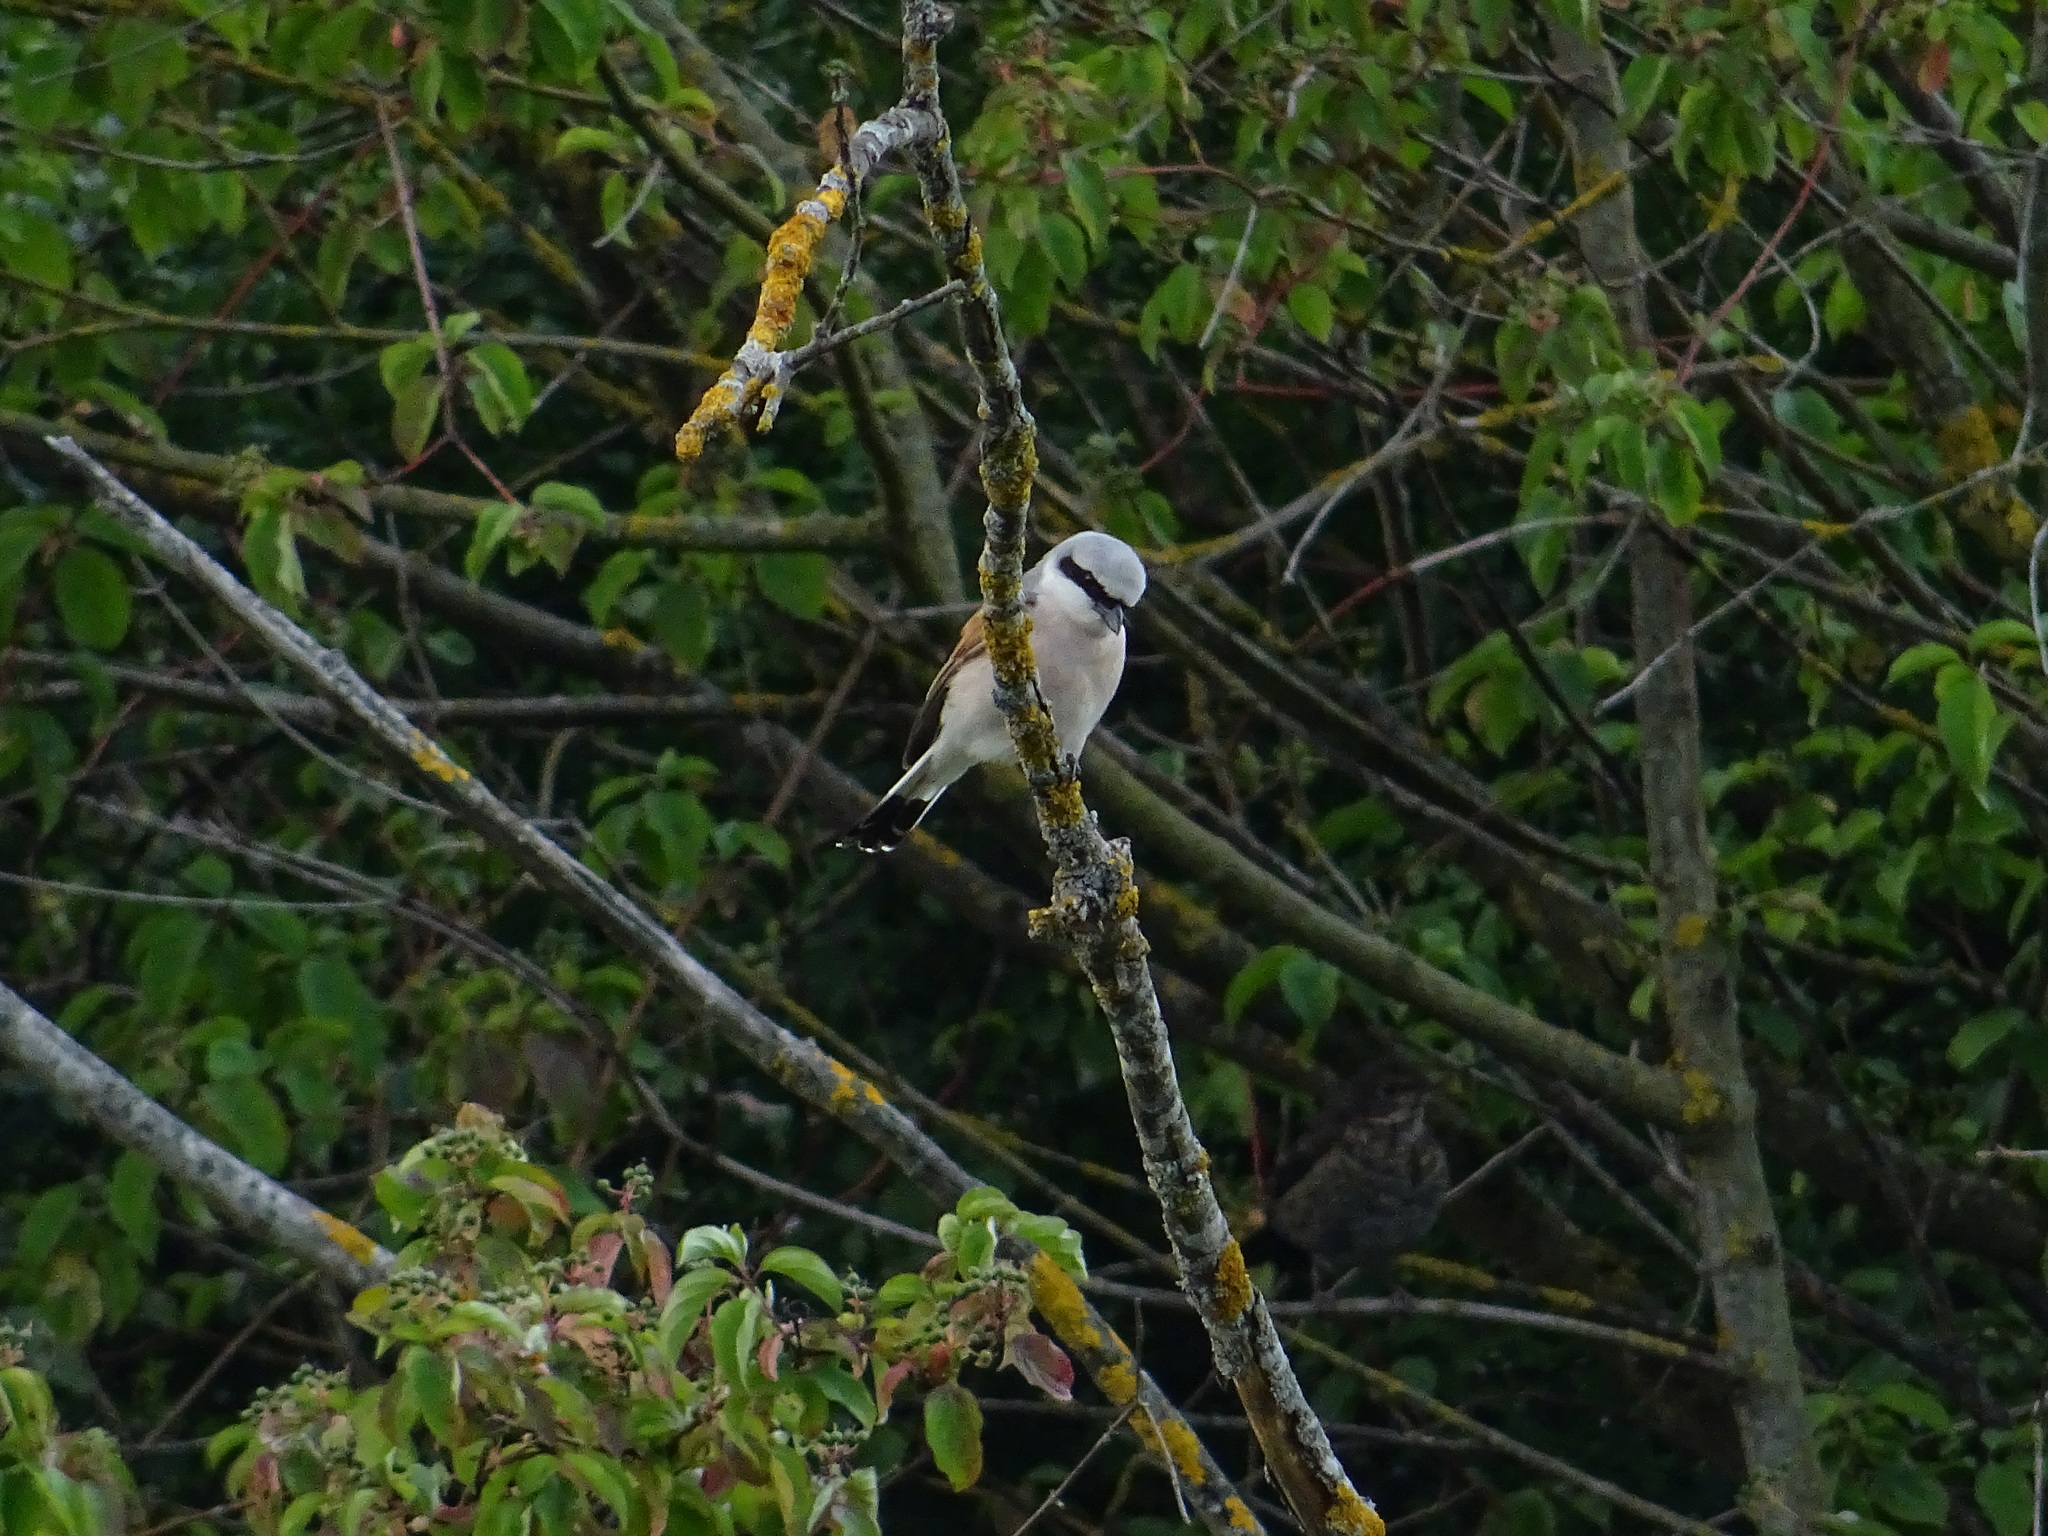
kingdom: Animalia
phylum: Chordata
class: Aves
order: Passeriformes
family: Laniidae
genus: Lanius
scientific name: Lanius collurio
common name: Red-backed shrike
